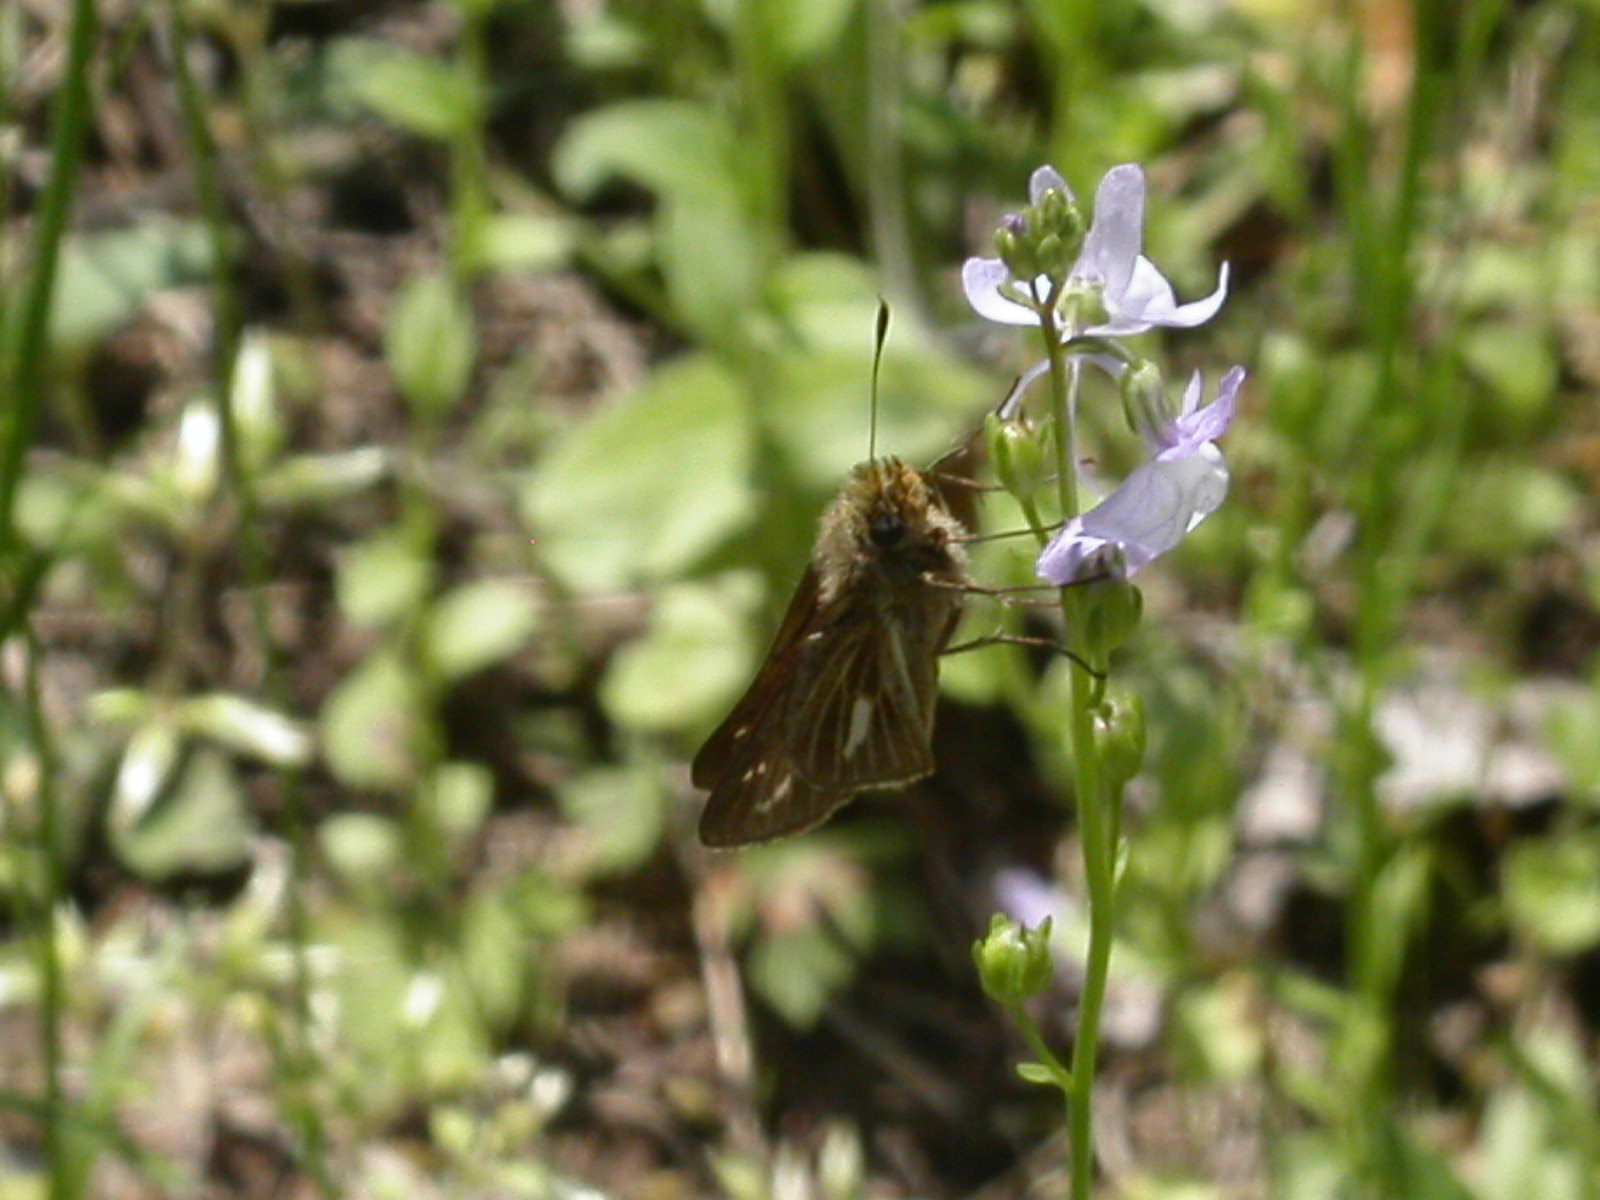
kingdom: Animalia
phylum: Arthropoda
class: Insecta
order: Lepidoptera
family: Hesperiidae
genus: Panoquina
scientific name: Panoquina panoquin
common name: Salt marsh skipper
